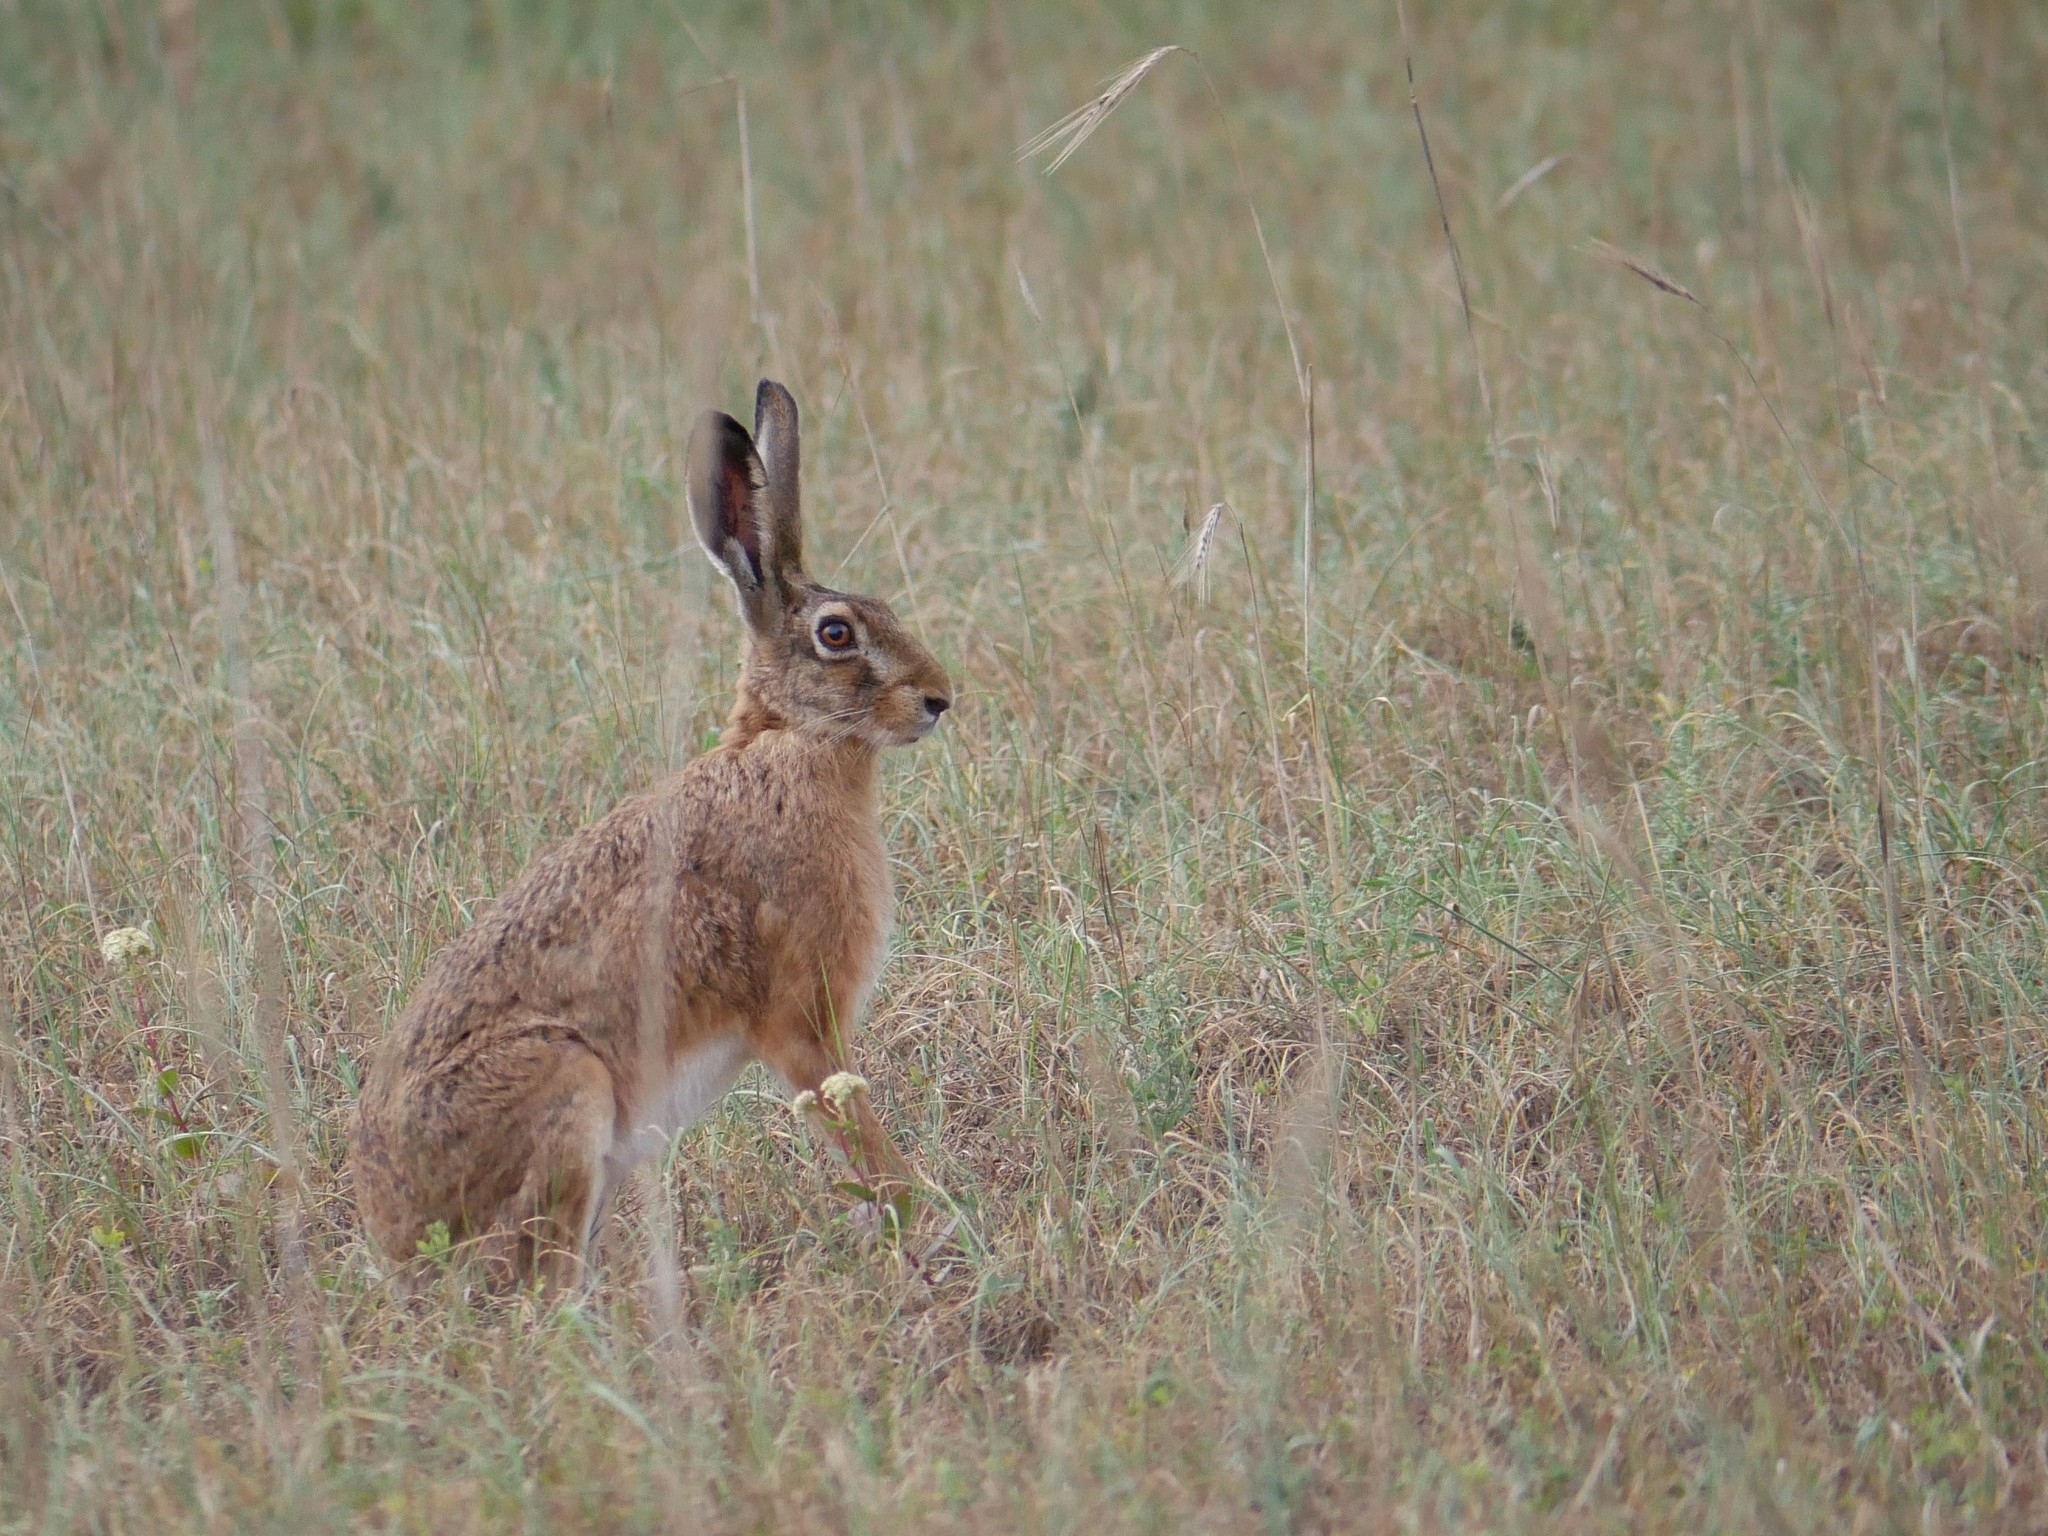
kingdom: Animalia
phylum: Chordata
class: Mammalia
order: Lagomorpha
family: Leporidae
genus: Lepus
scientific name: Lepus europaeus
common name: European hare
